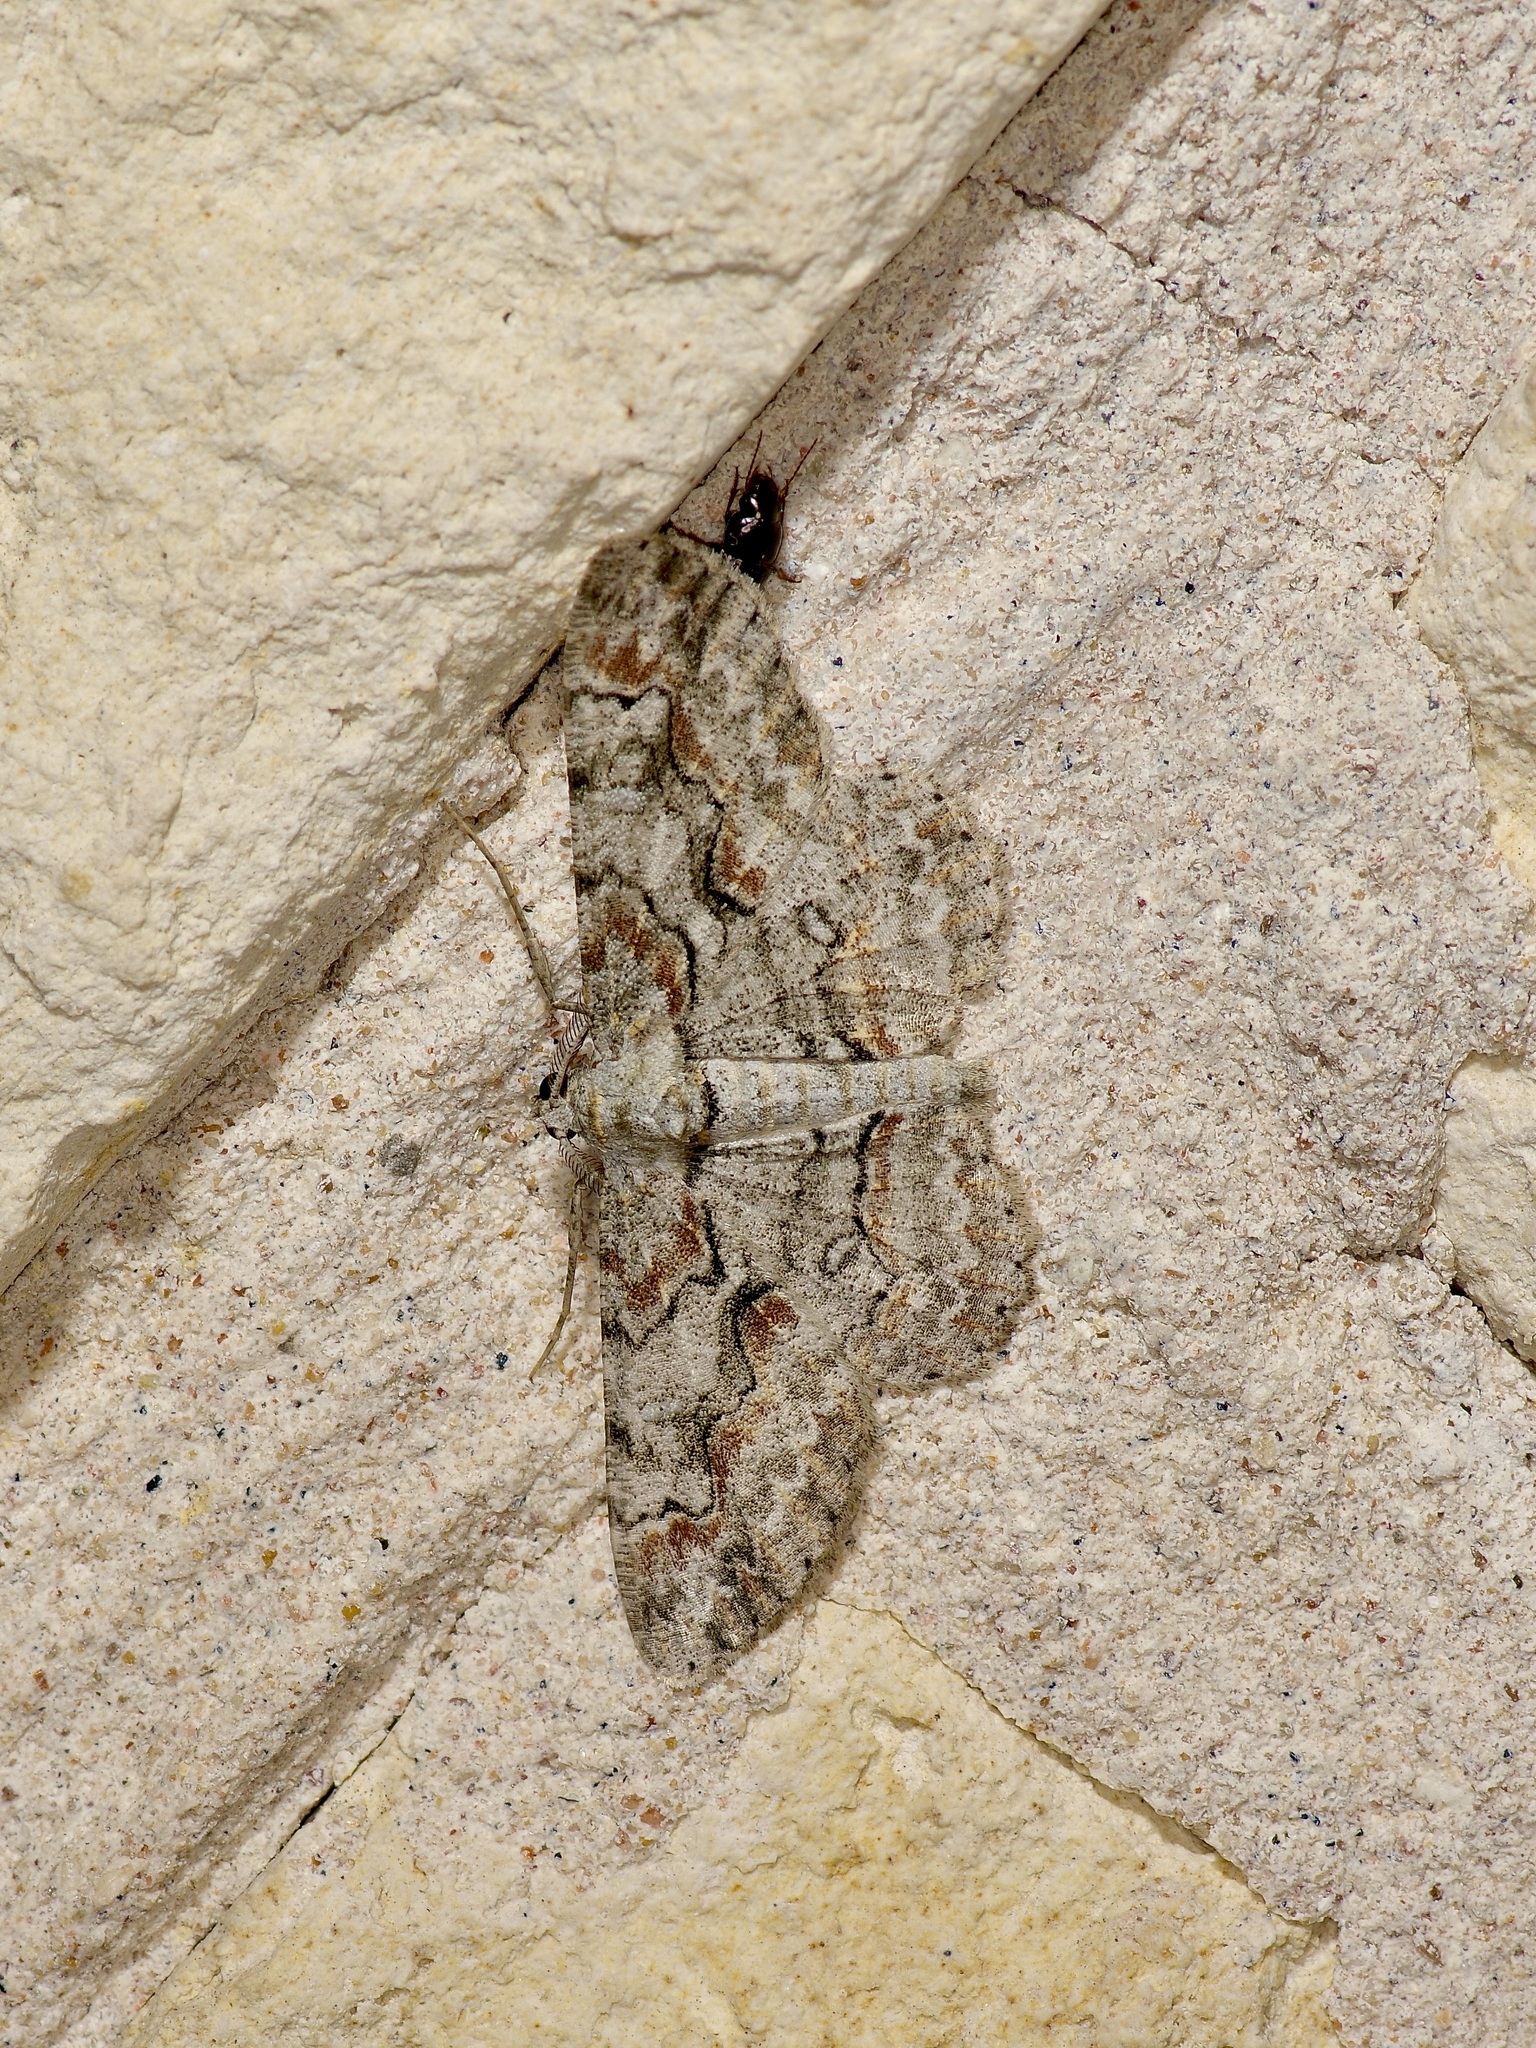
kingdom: Animalia
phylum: Arthropoda
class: Insecta
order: Lepidoptera
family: Geometridae
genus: Iridopsis
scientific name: Iridopsis defectaria
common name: Brown-shaded gray
